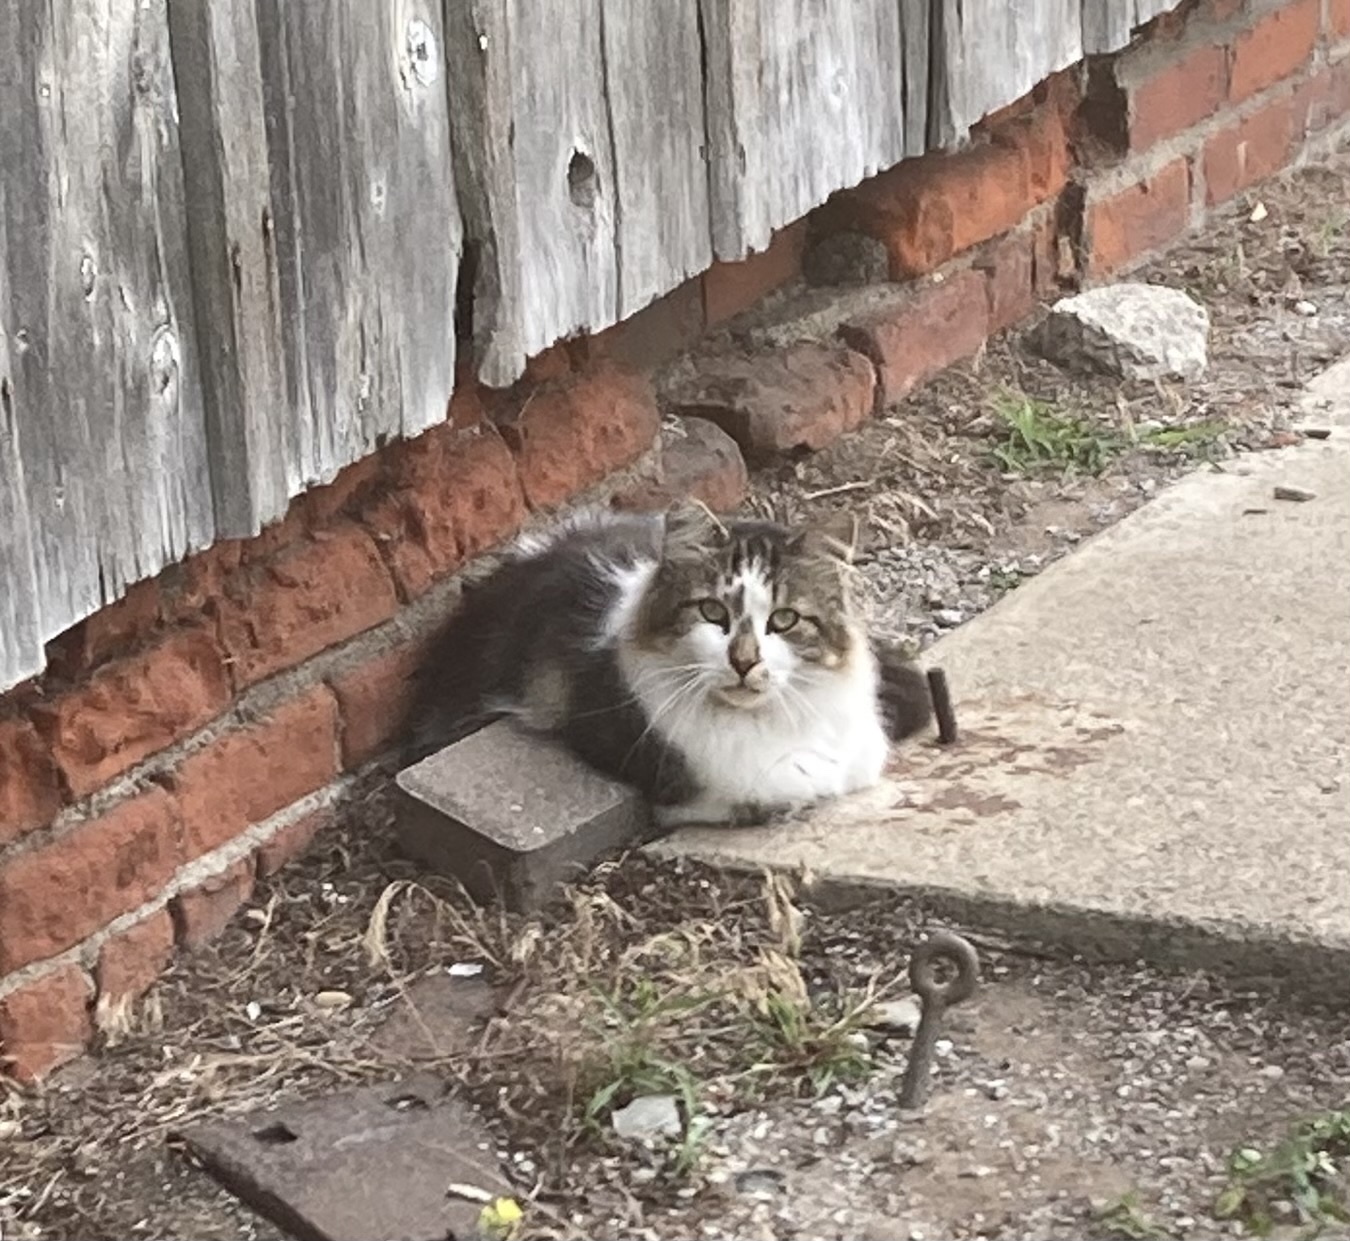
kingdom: Animalia
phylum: Chordata
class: Mammalia
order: Carnivora
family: Felidae
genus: Felis
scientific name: Felis catus
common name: Domestic cat
